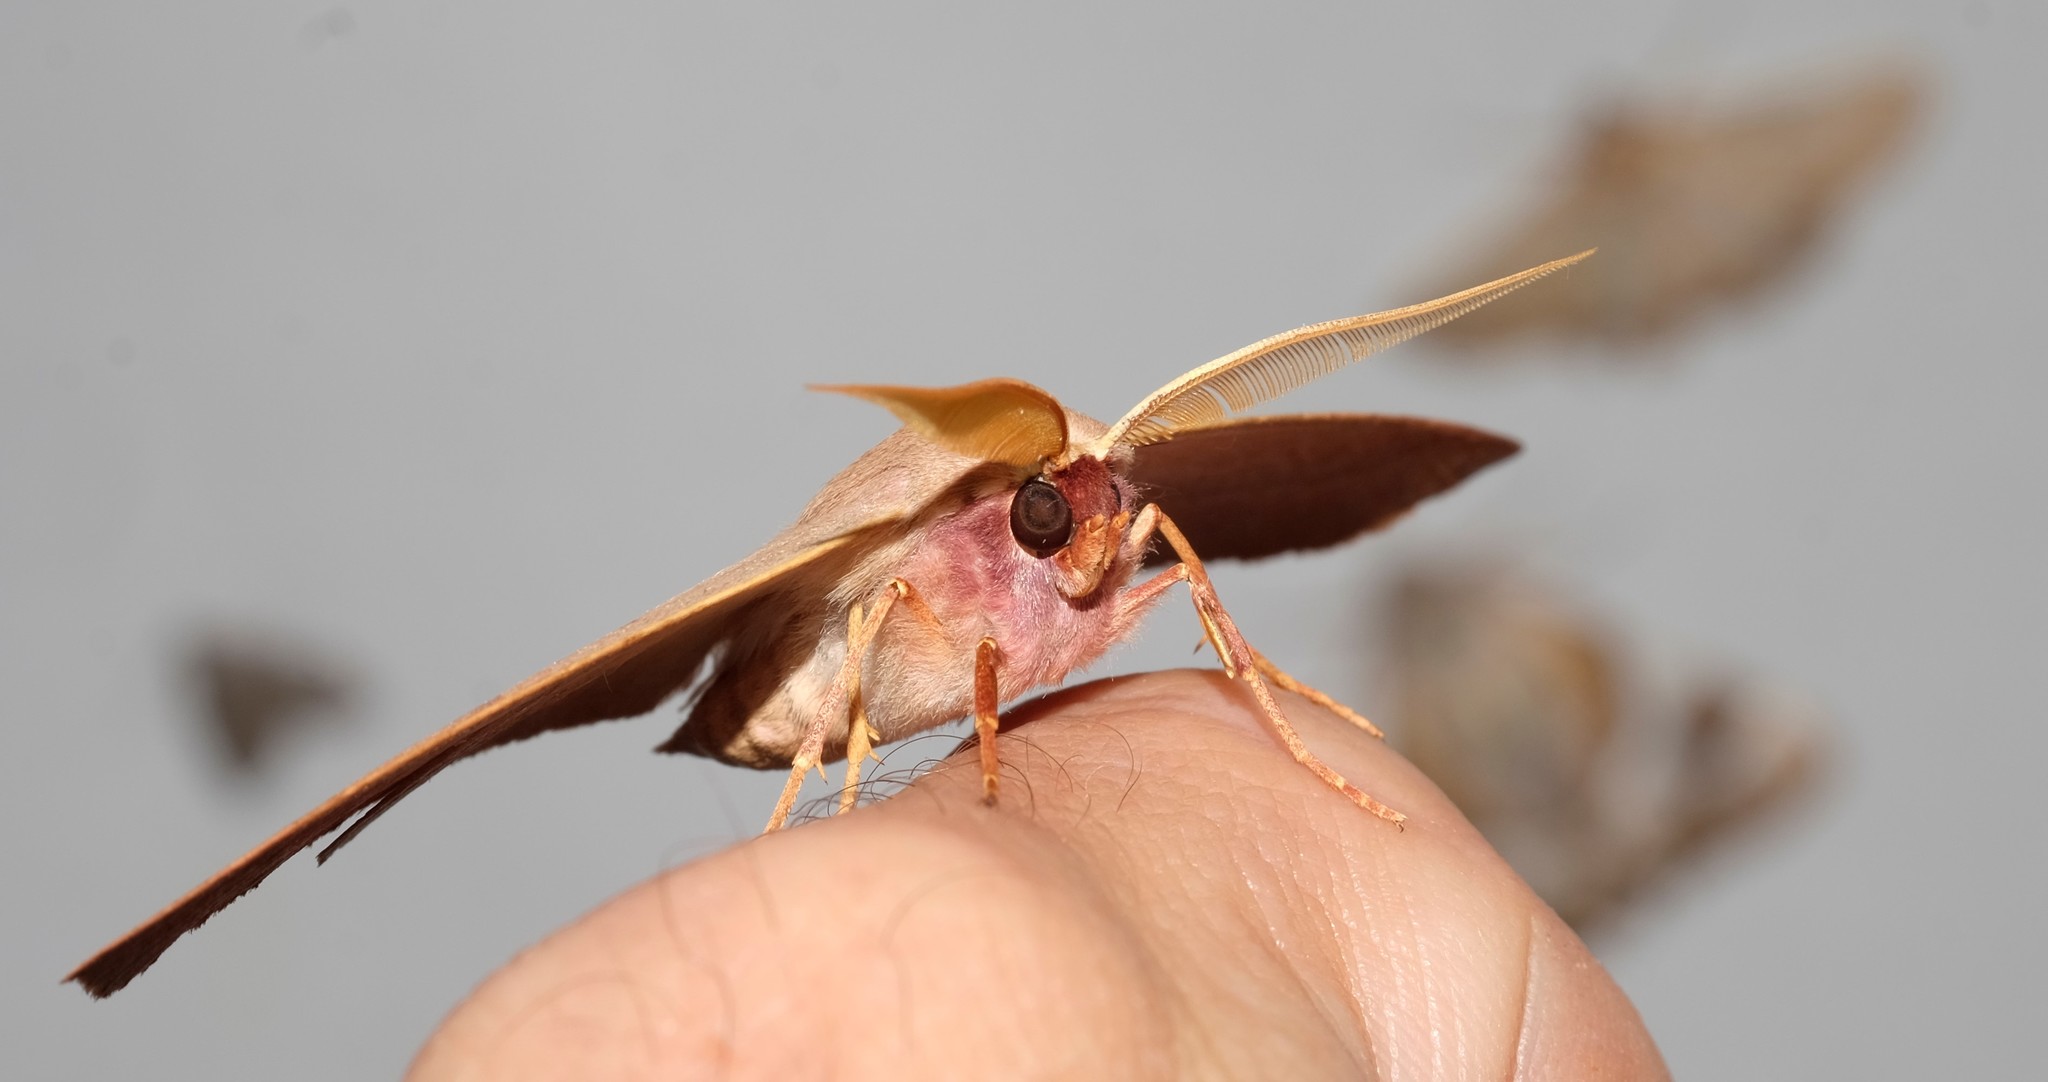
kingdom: Animalia
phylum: Arthropoda
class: Insecta
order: Lepidoptera
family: Geometridae
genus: Monoctenia
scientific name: Monoctenia falernaria
